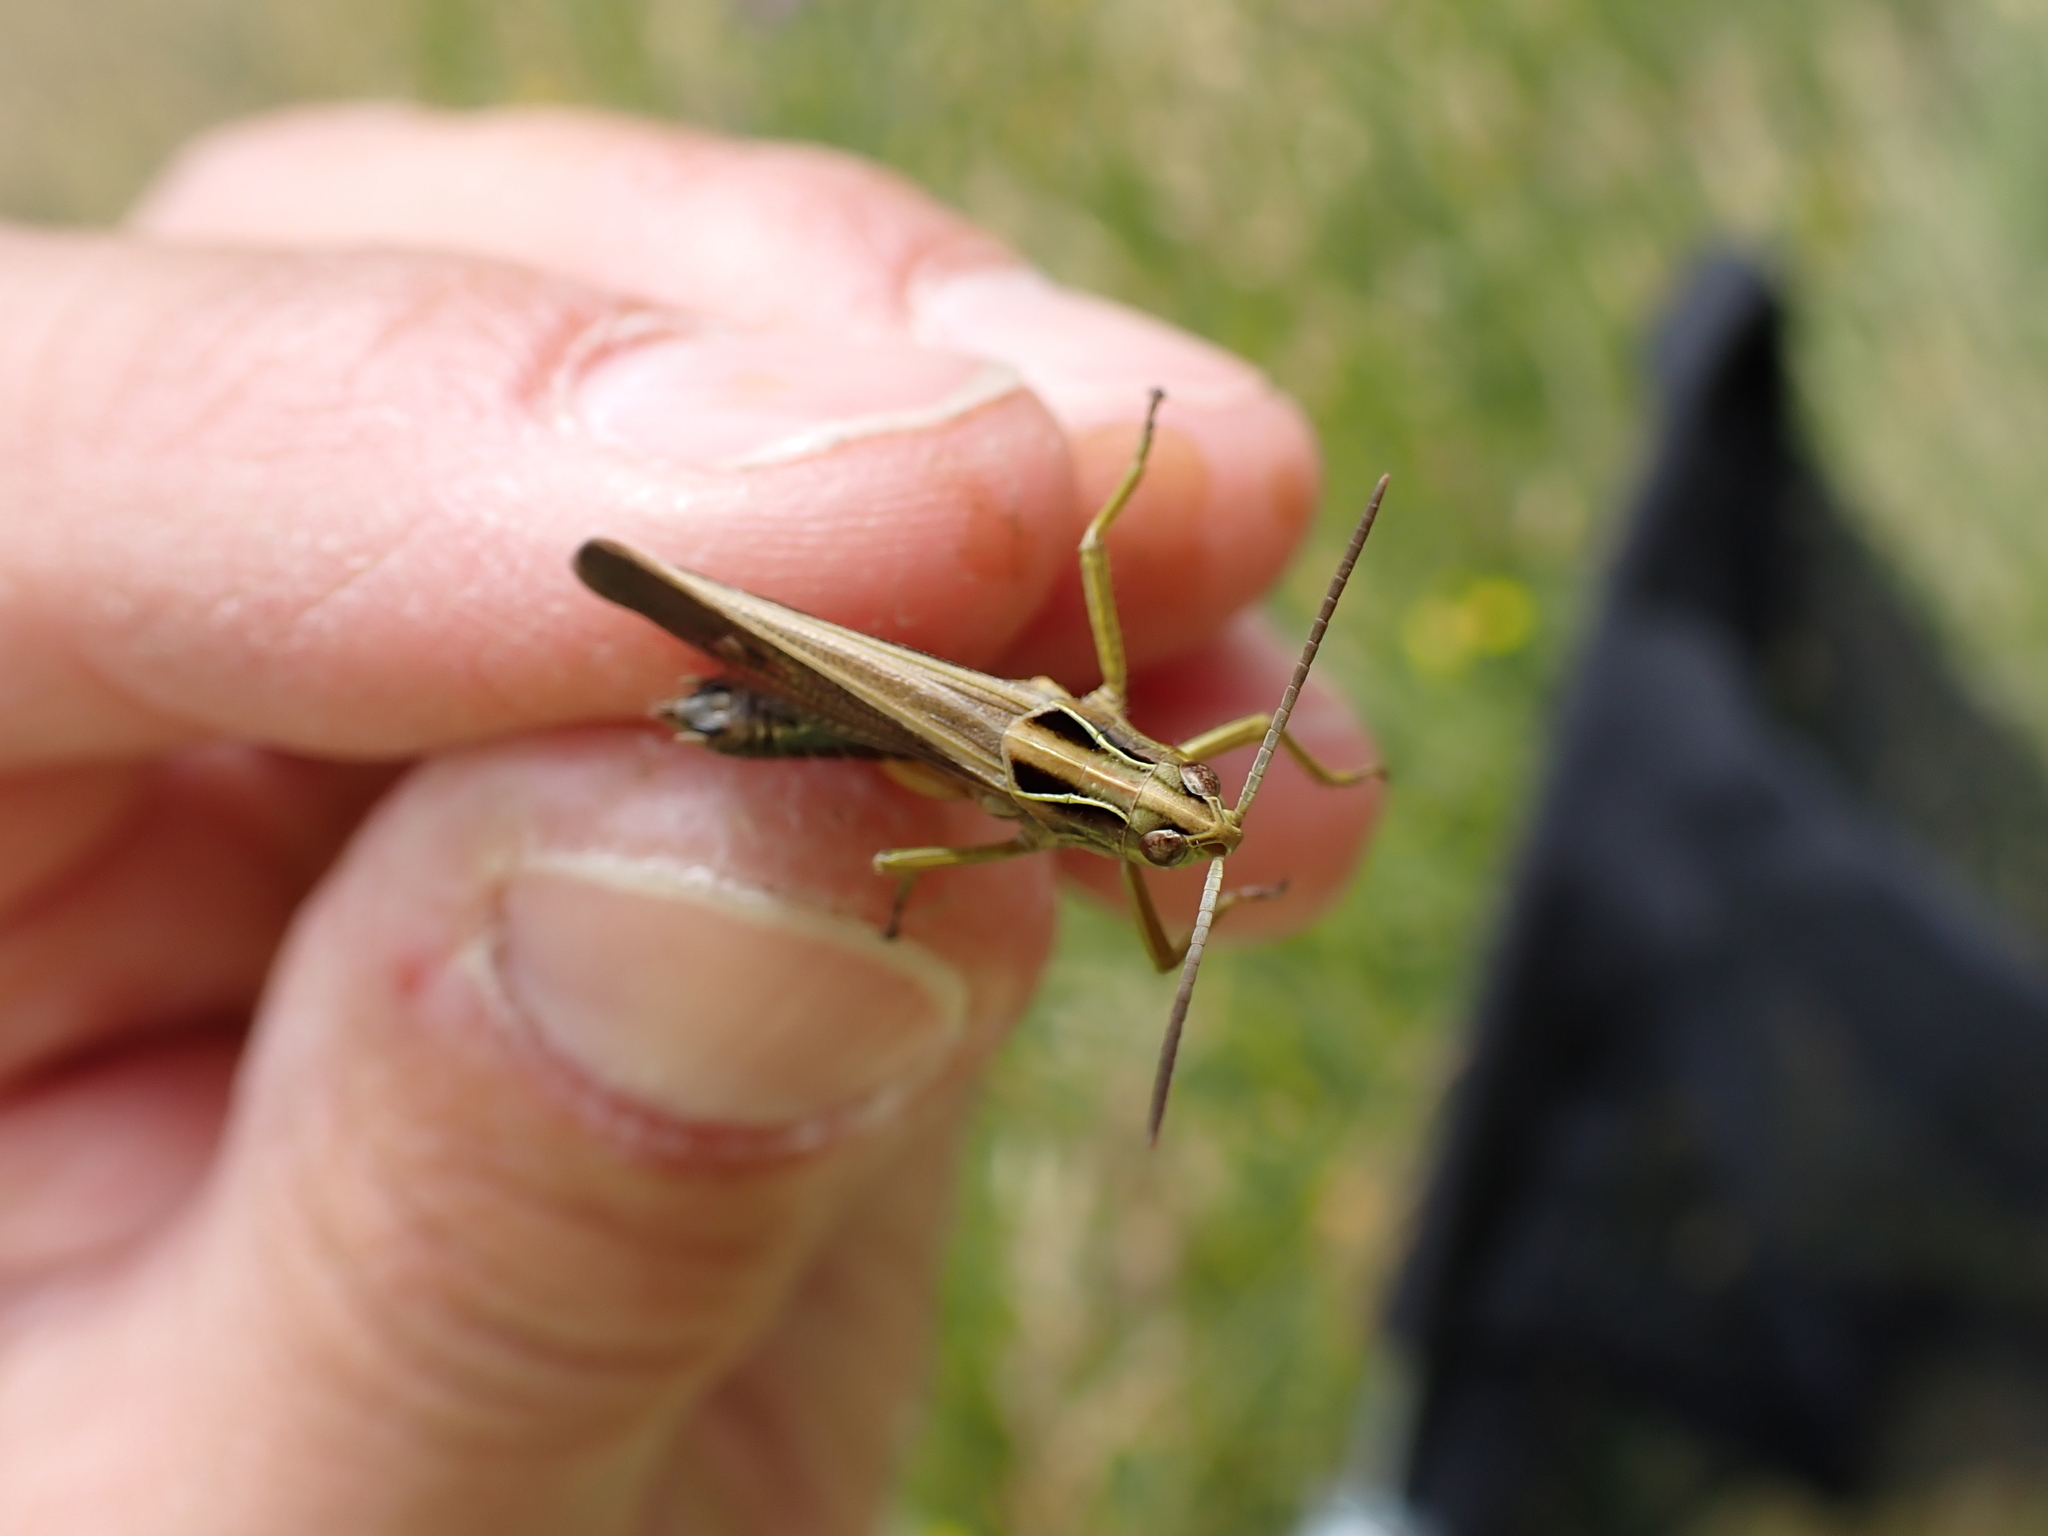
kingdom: Animalia
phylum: Arthropoda
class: Insecta
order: Orthoptera
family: Acrididae
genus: Omocestus
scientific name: Omocestus viridulus
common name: Common green grasshopper
